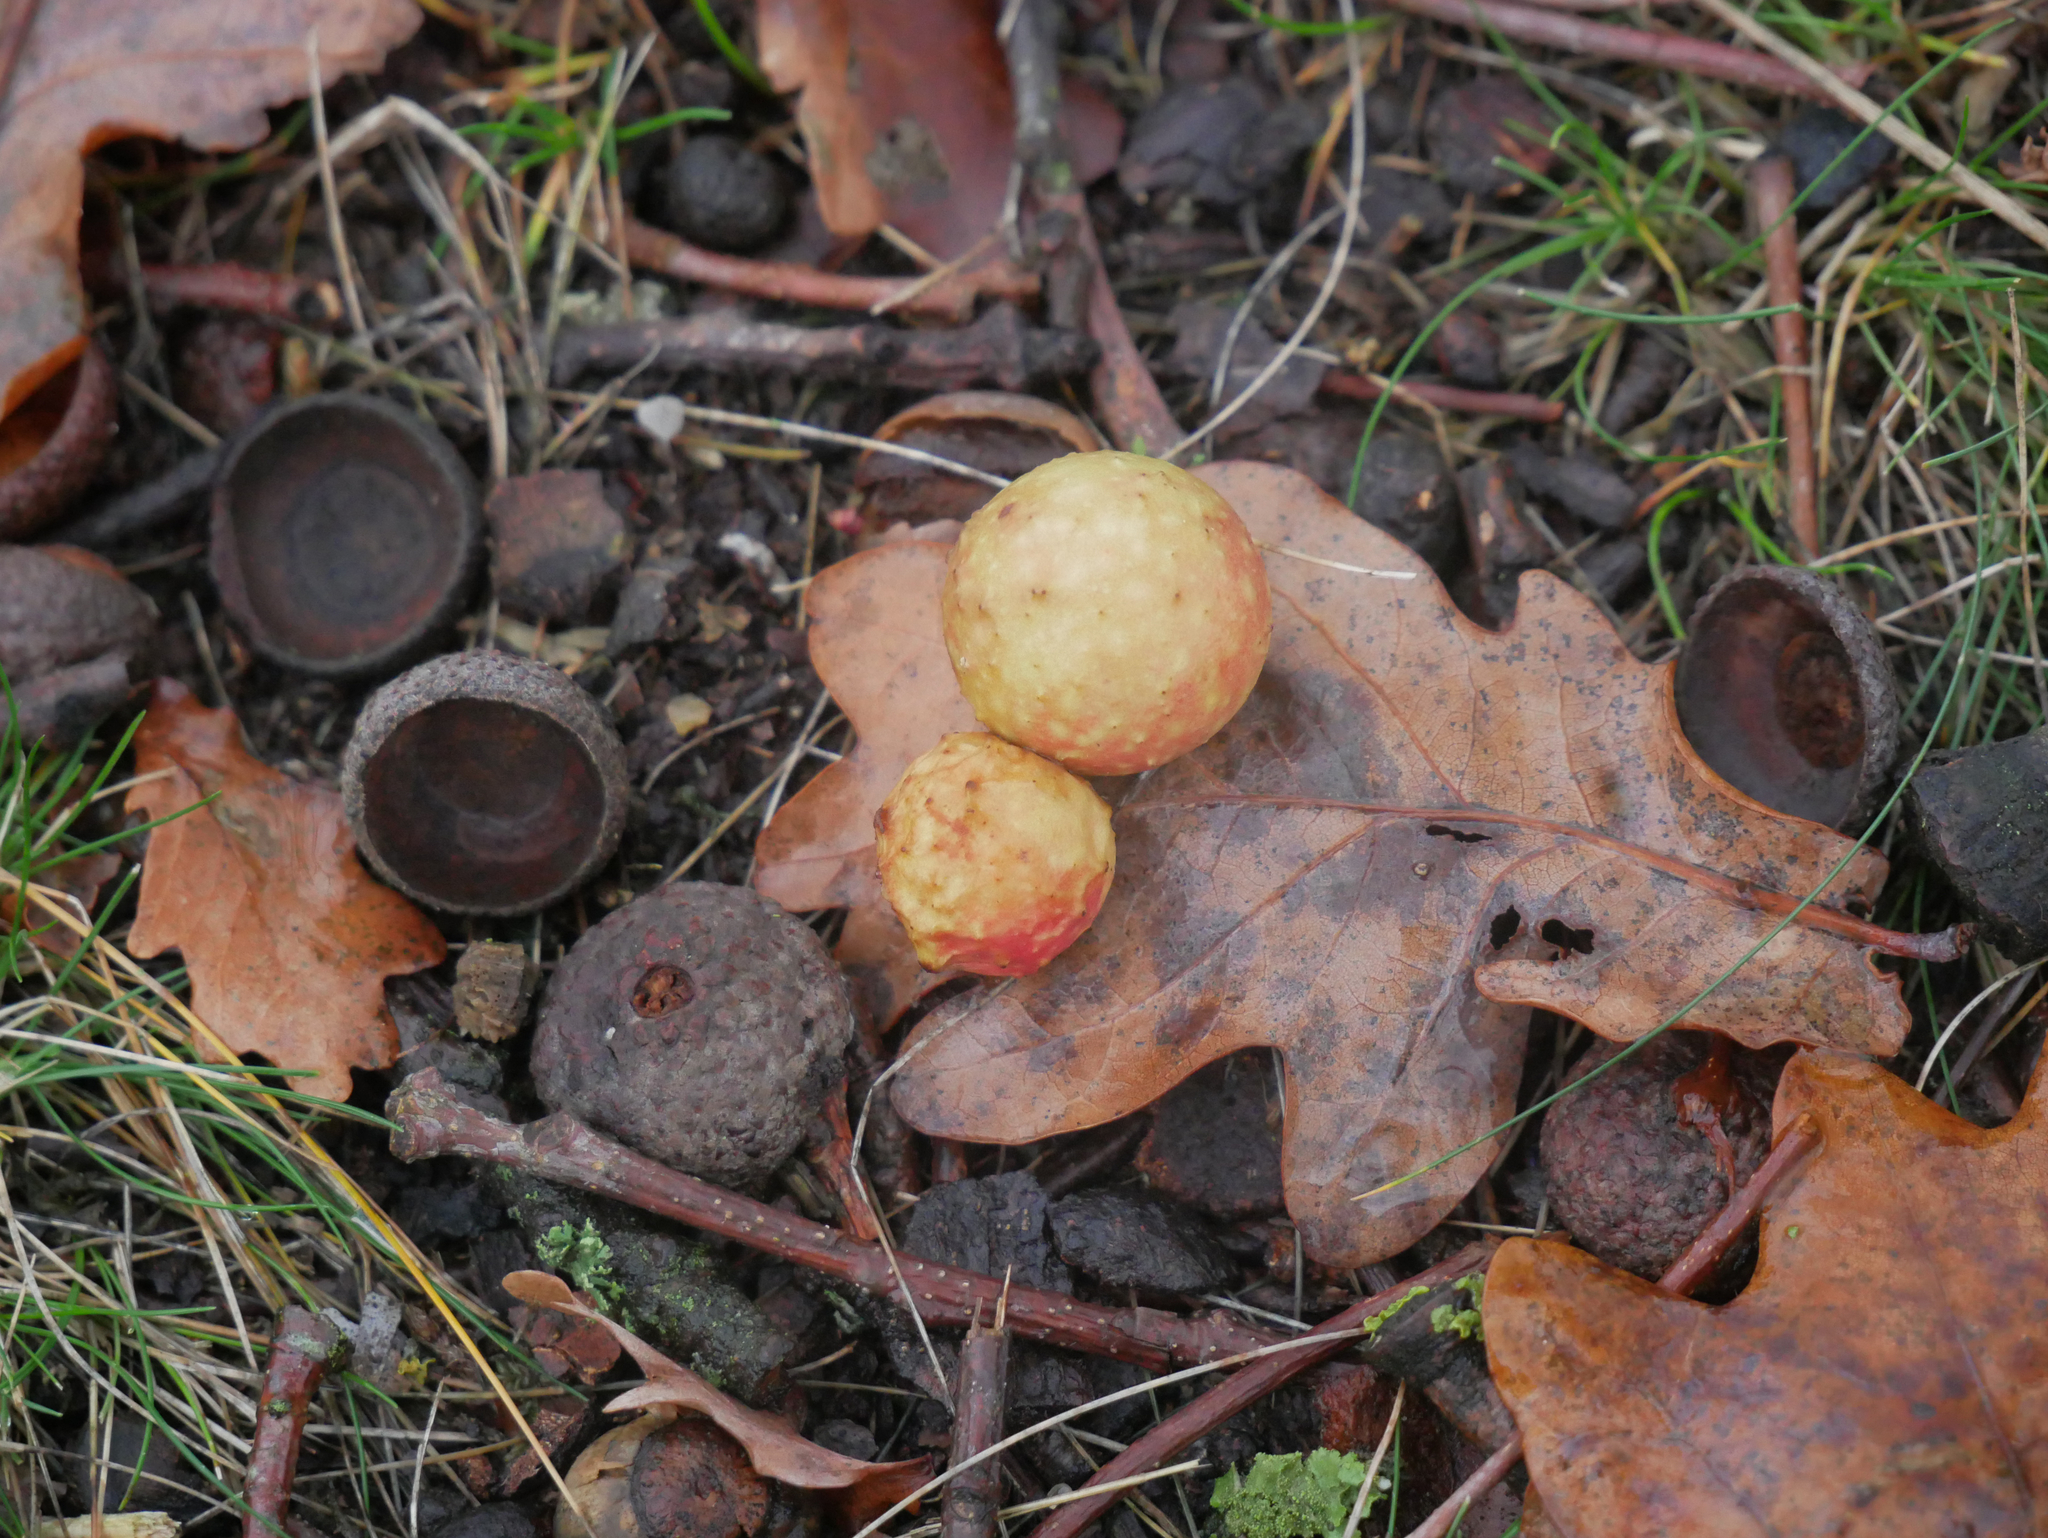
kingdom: Animalia
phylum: Arthropoda
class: Insecta
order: Hymenoptera
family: Cynipidae
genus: Cynips
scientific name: Cynips quercusfolii
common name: Cherry gall
